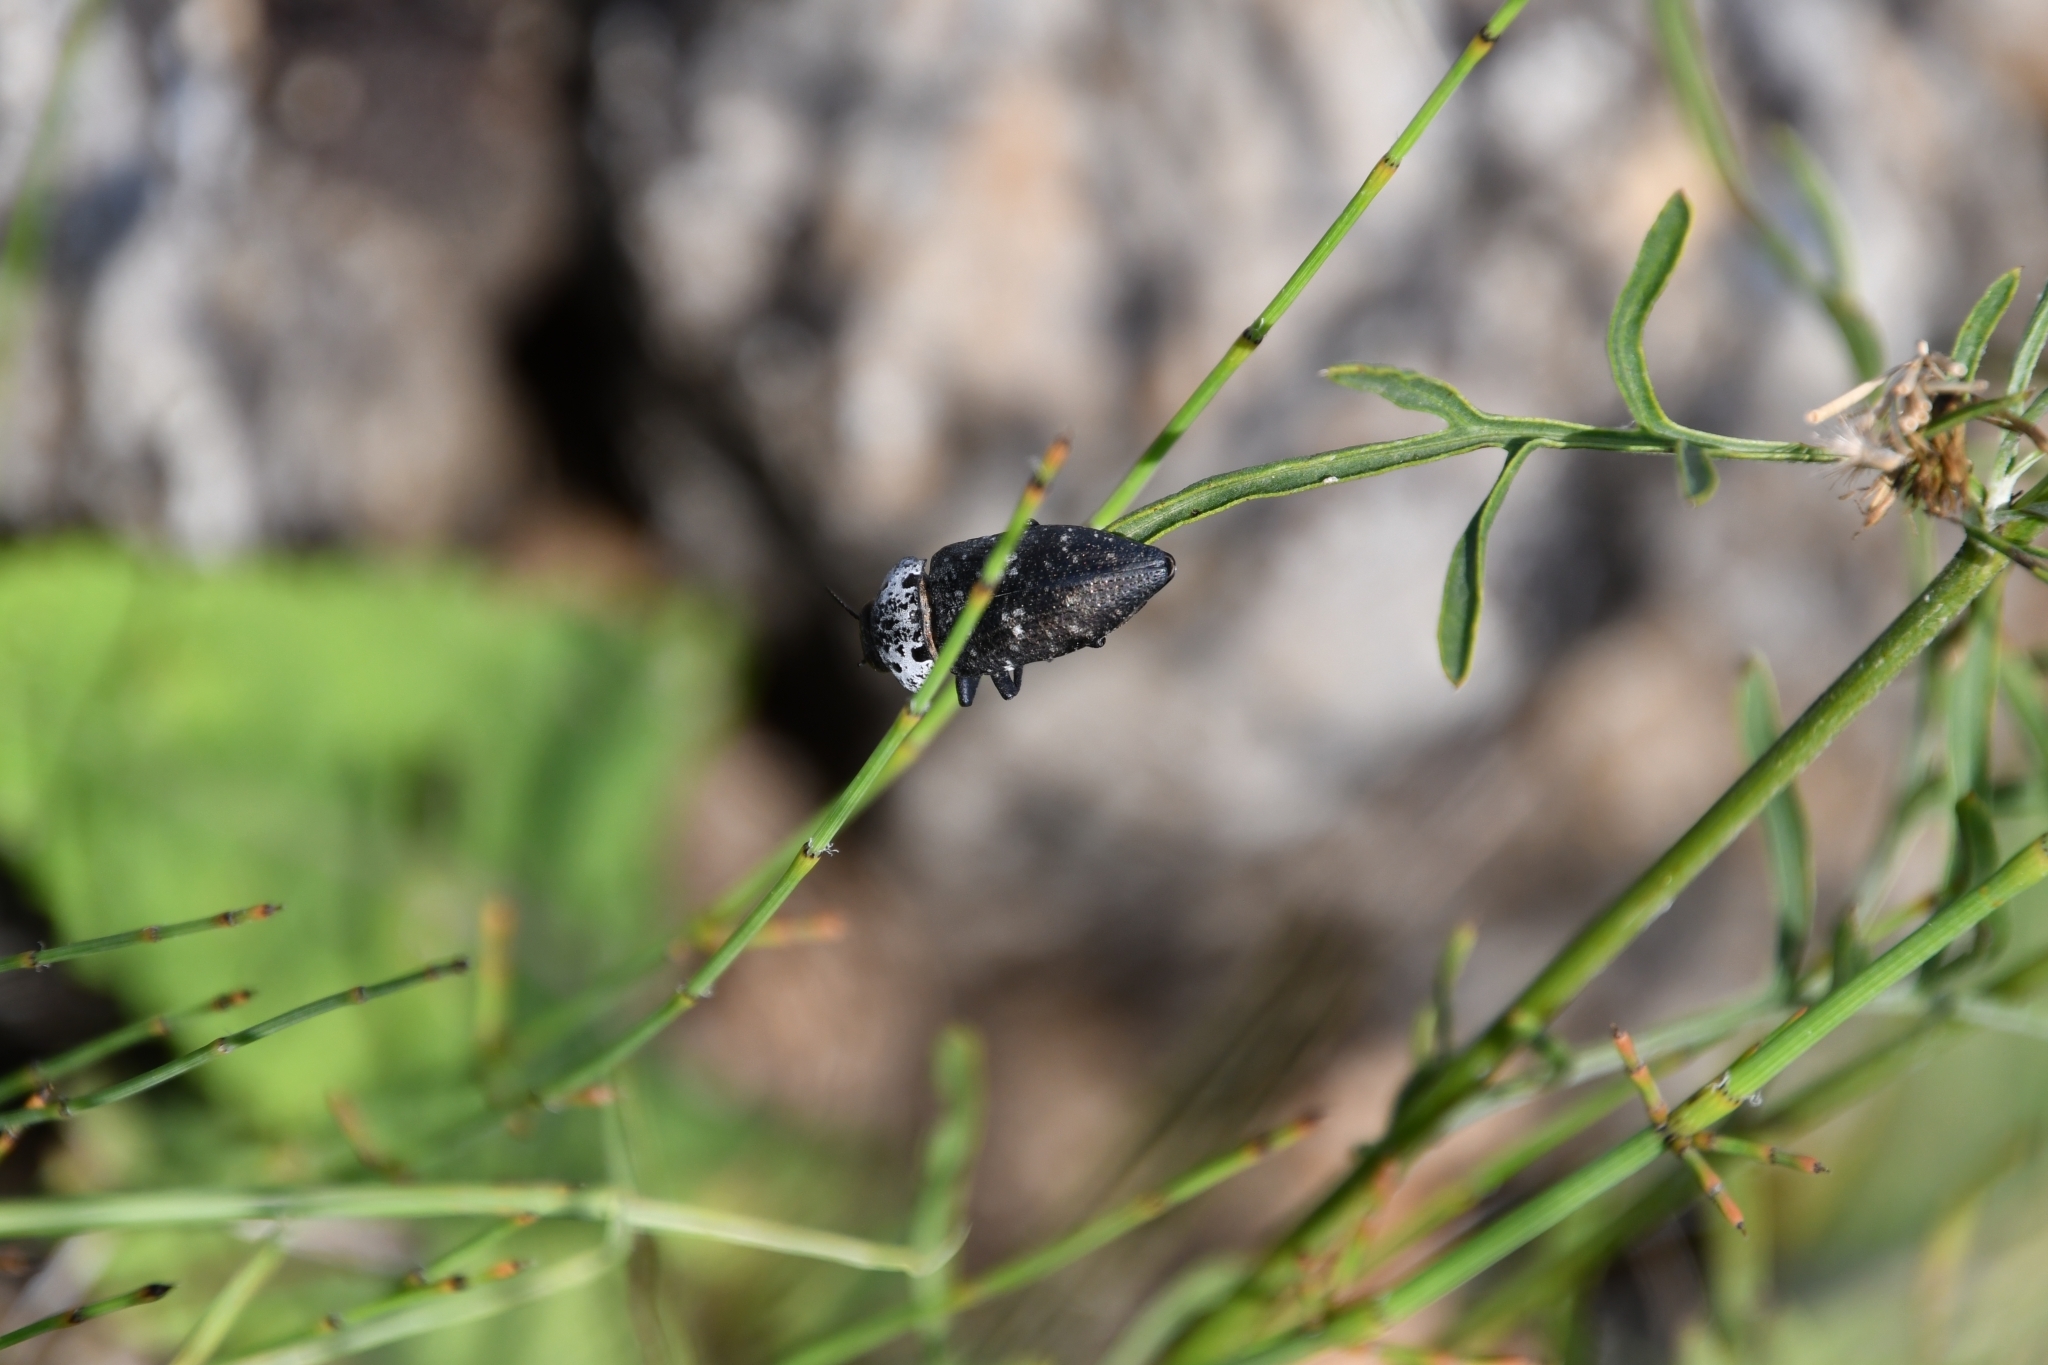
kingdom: Animalia
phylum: Arthropoda
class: Insecta
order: Coleoptera
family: Buprestidae
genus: Capnodis
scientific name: Capnodis tenebrionis
